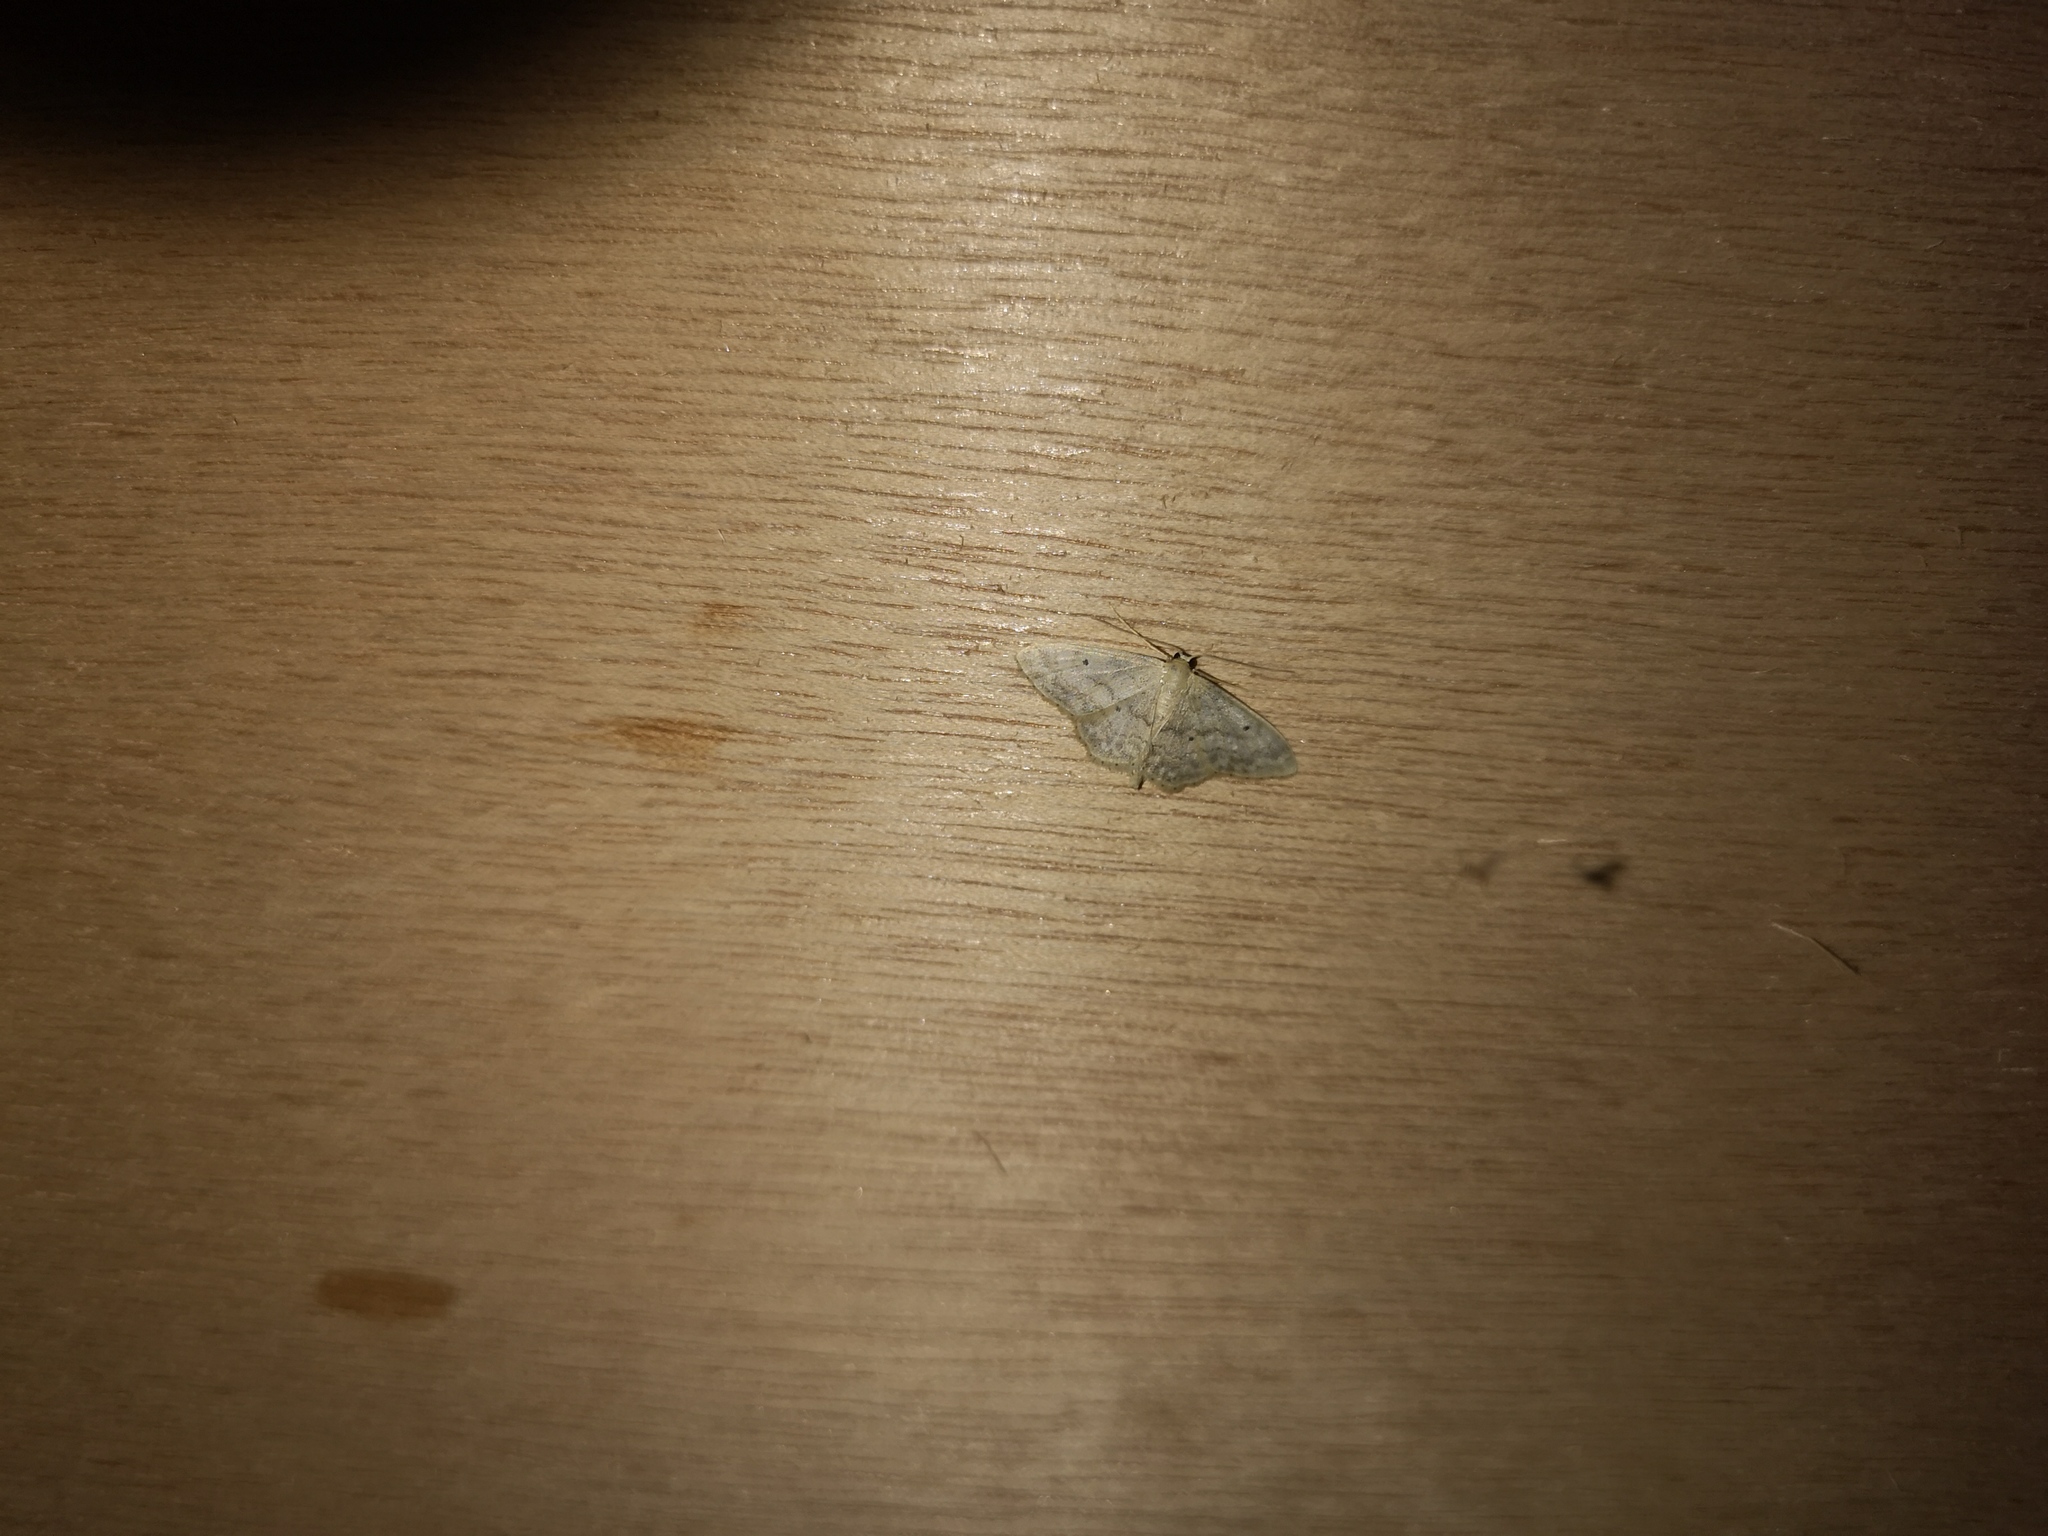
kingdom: Animalia
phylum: Arthropoda
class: Insecta
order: Lepidoptera
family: Geometridae
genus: Idaea
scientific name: Idaea biselata
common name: Small fan-footed wave
